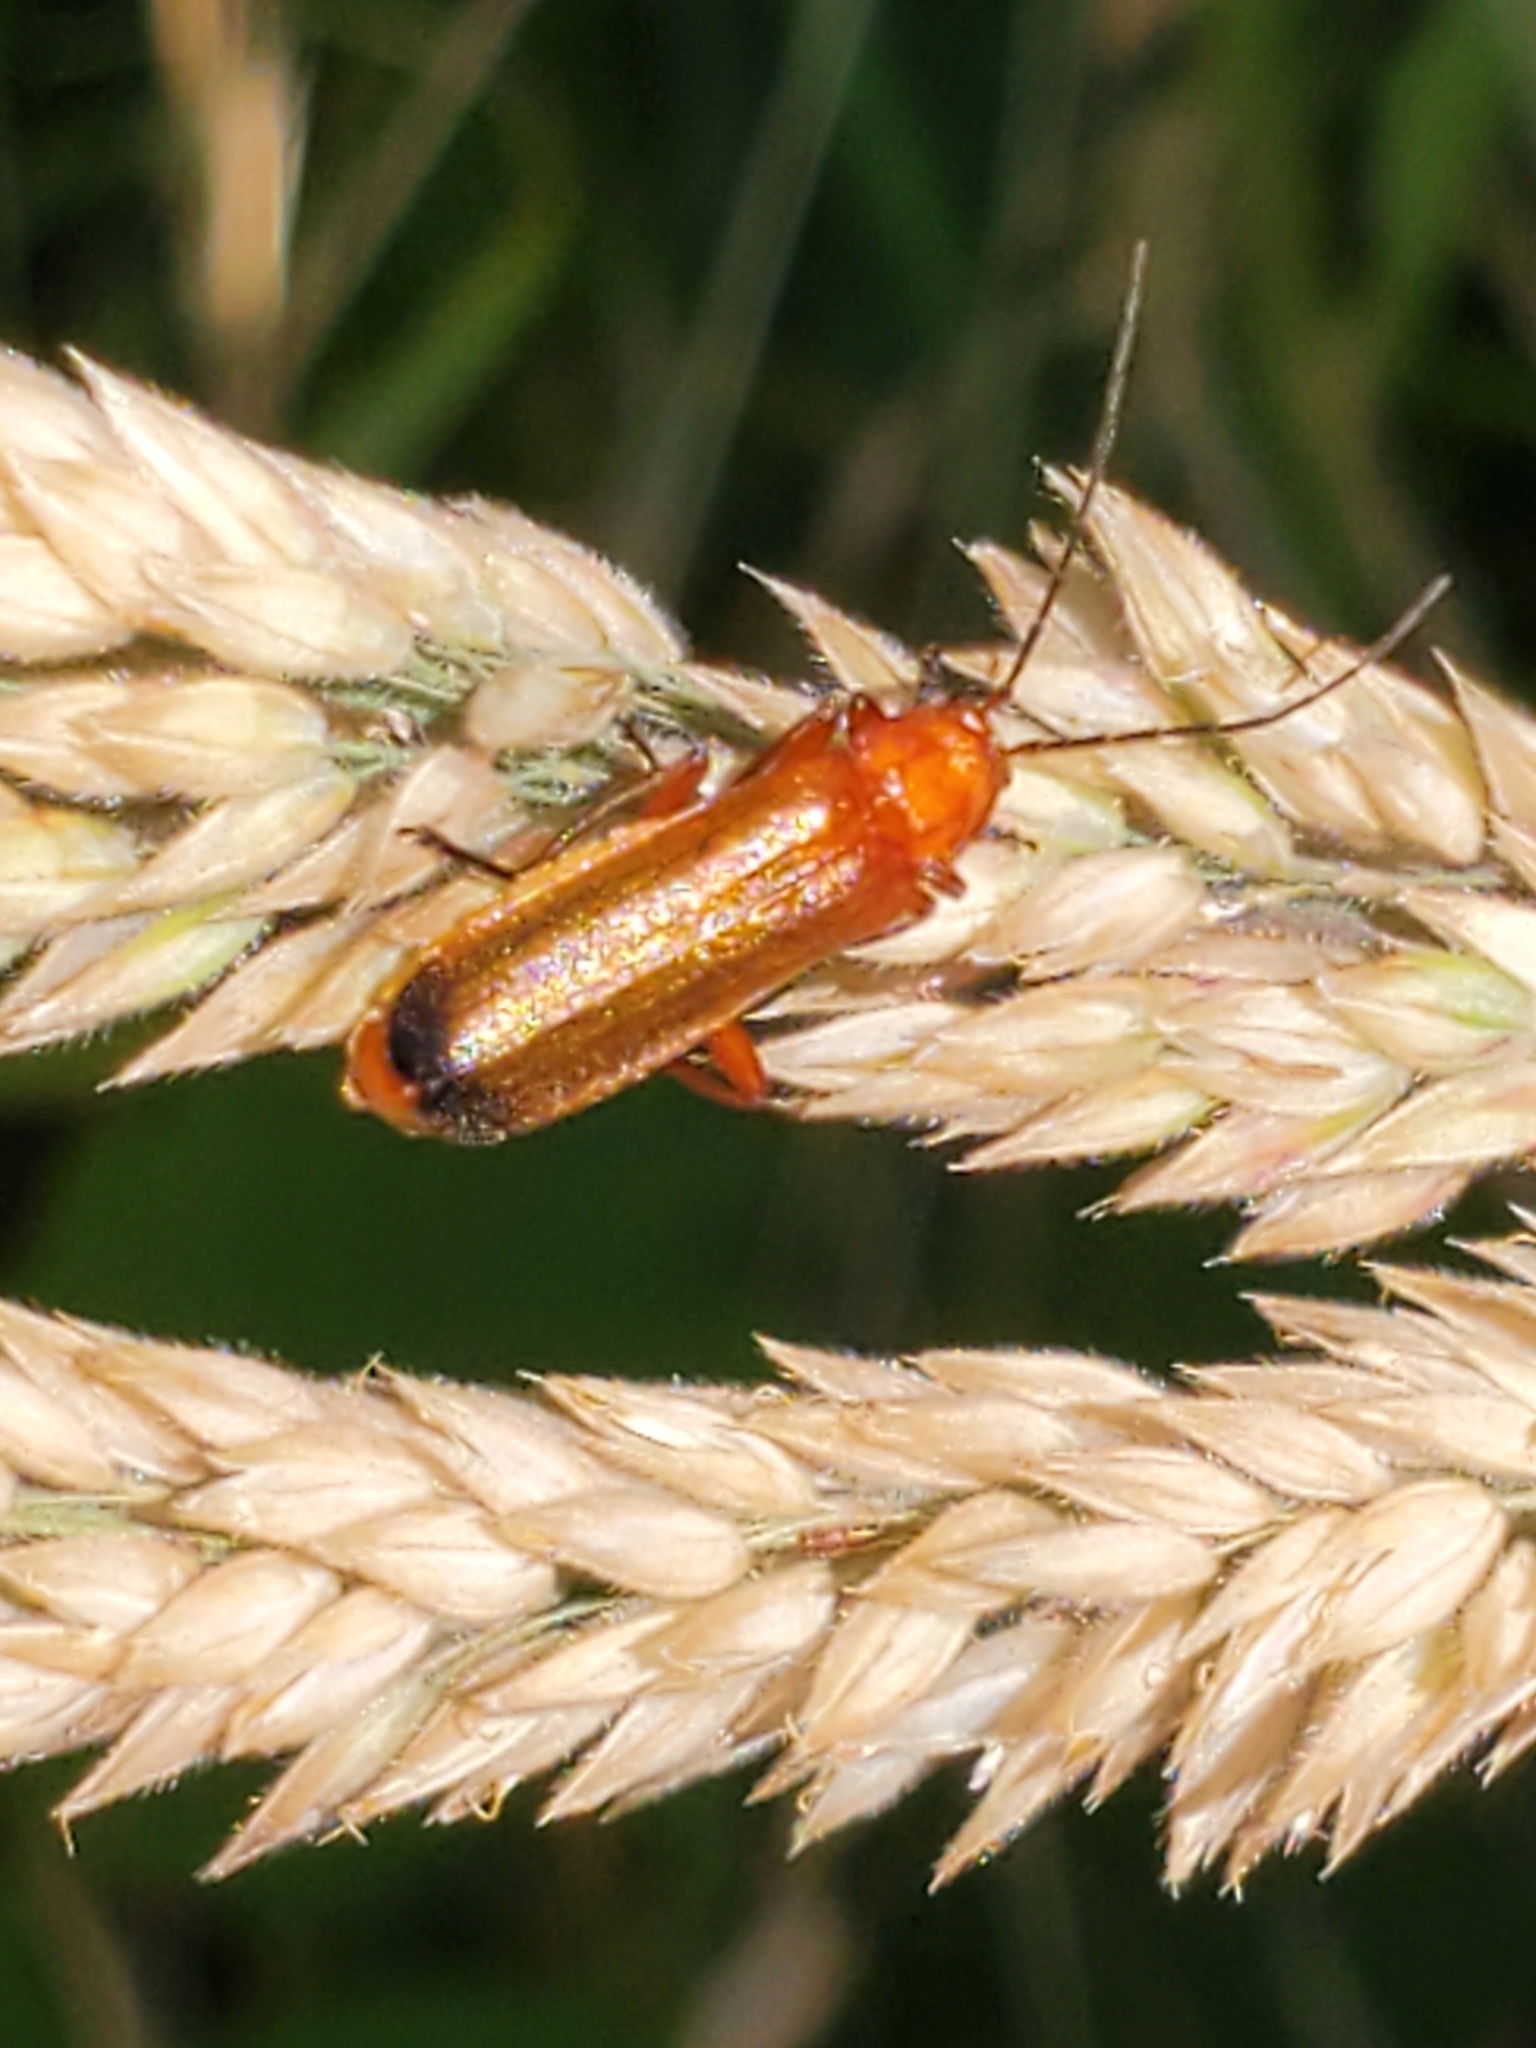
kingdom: Animalia
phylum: Arthropoda
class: Insecta
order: Coleoptera
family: Cantharidae
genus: Rhagonycha
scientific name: Rhagonycha fulva
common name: Common red soldier beetle
